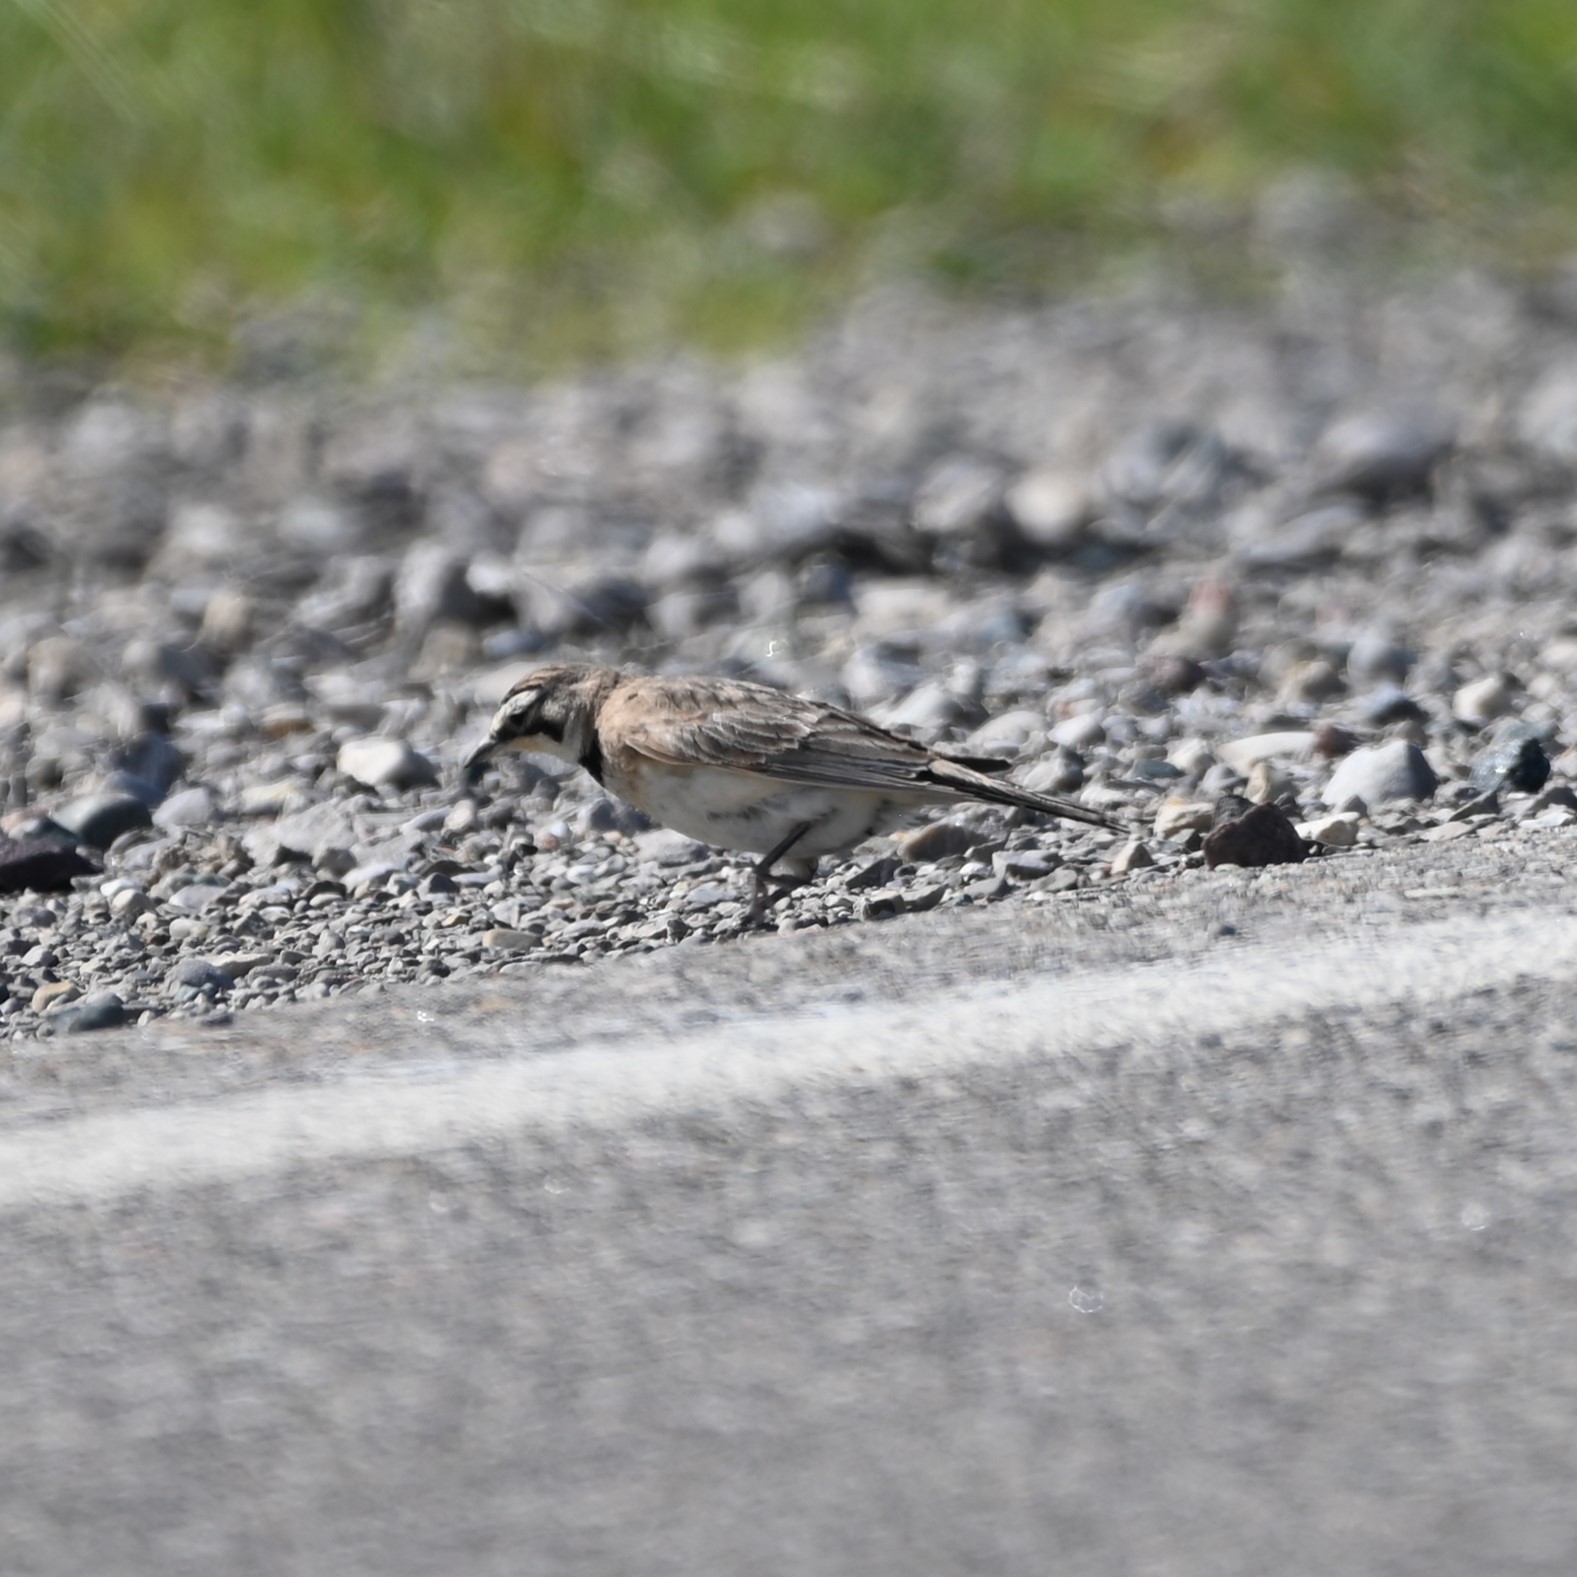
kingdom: Animalia
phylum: Chordata
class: Aves
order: Passeriformes
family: Alaudidae
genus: Eremophila
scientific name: Eremophila alpestris
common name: Horned lark
